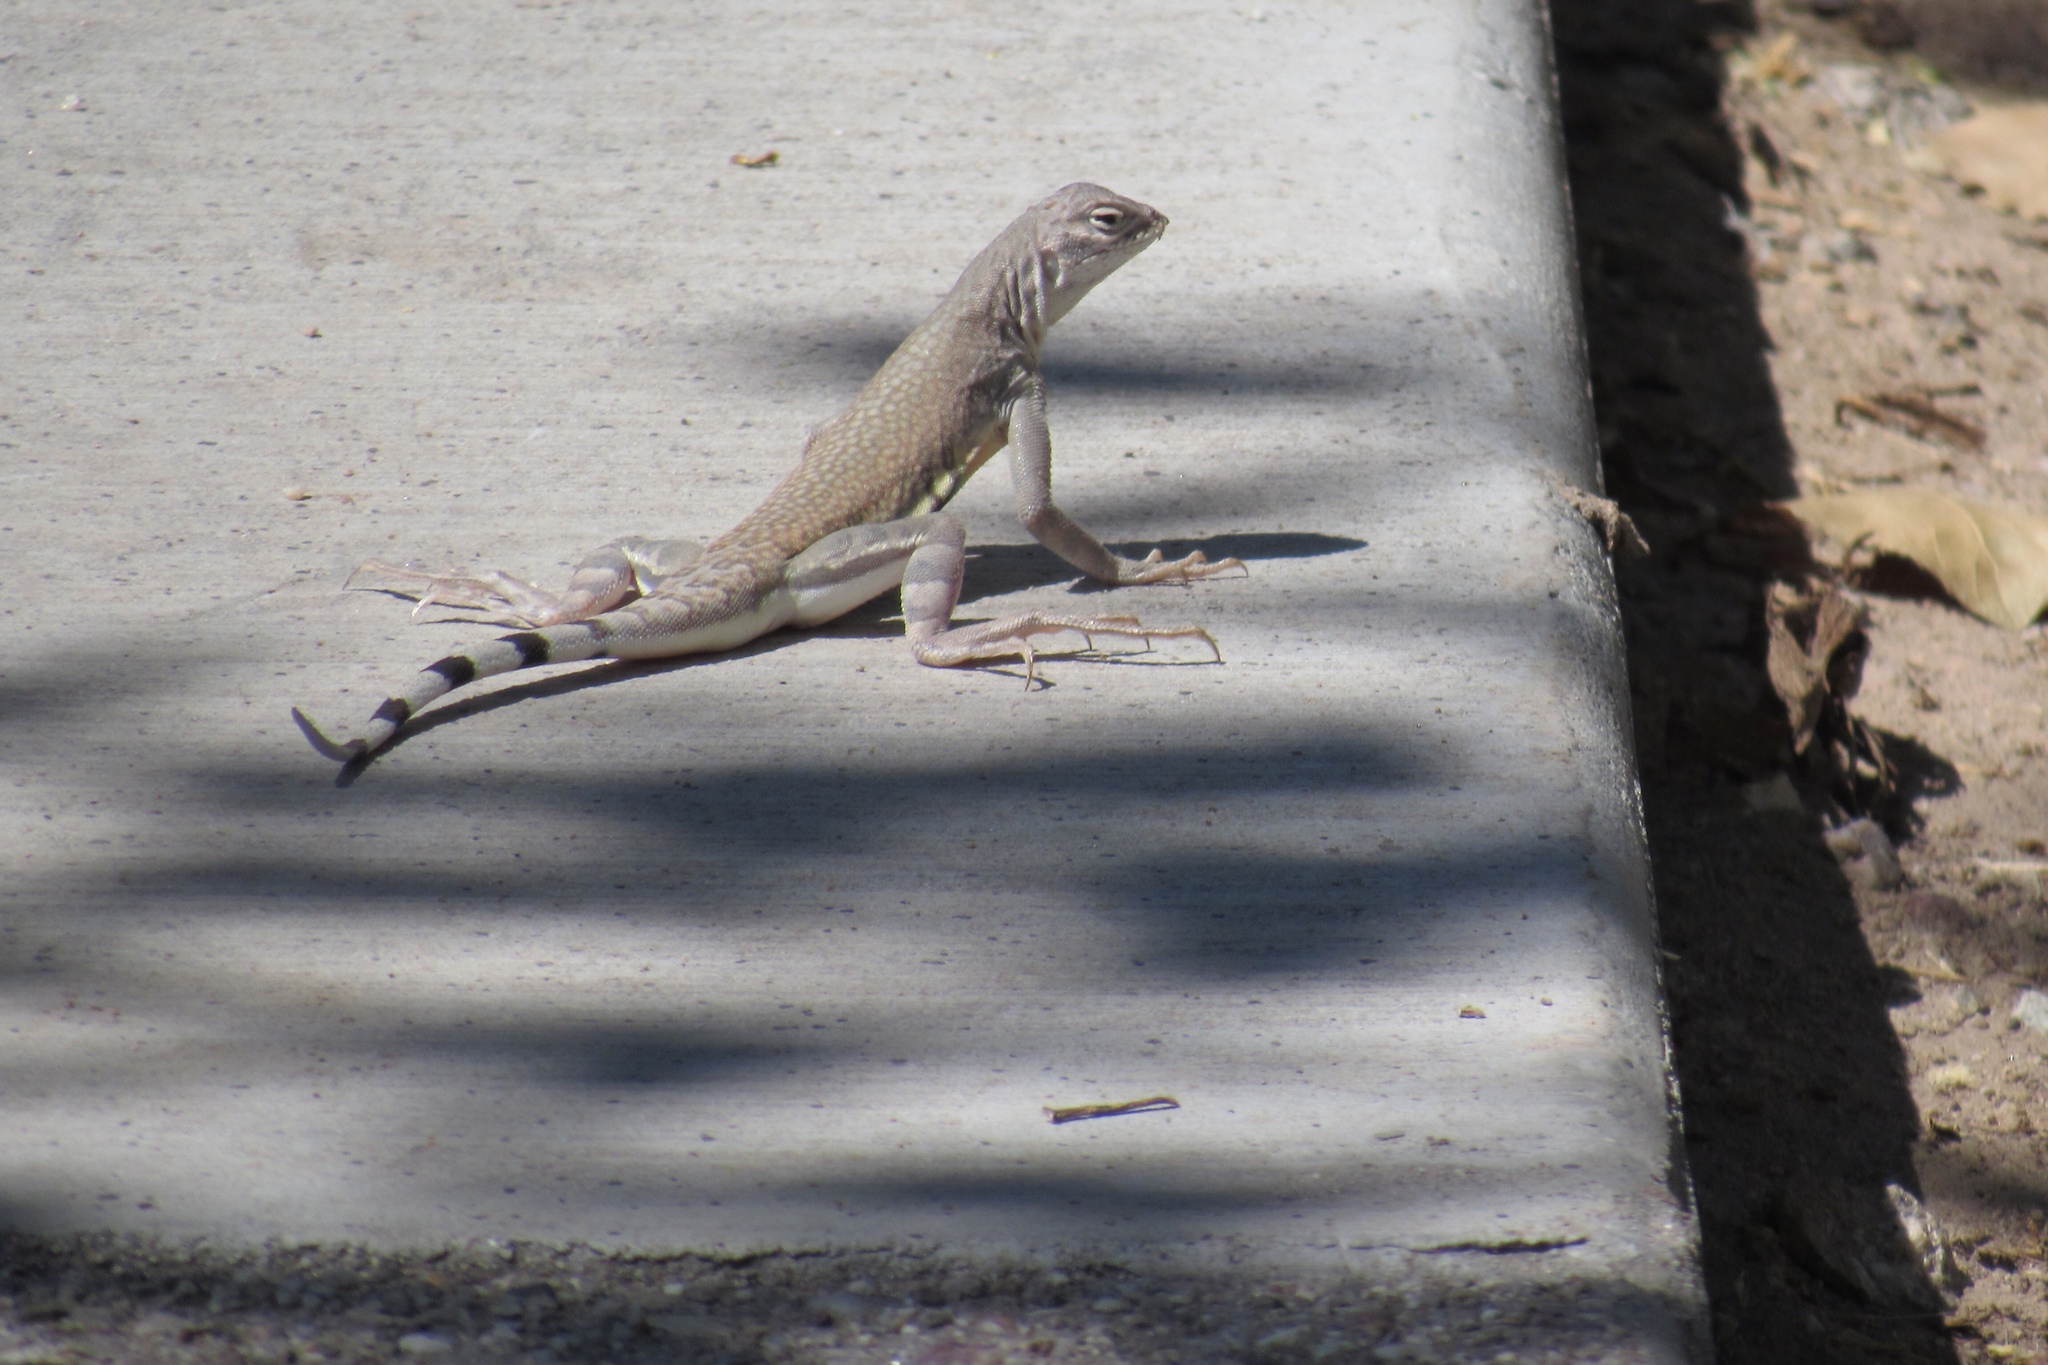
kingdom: Animalia
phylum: Chordata
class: Squamata
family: Phrynosomatidae
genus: Callisaurus
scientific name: Callisaurus draconoides
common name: Zebra-tailed lizard
